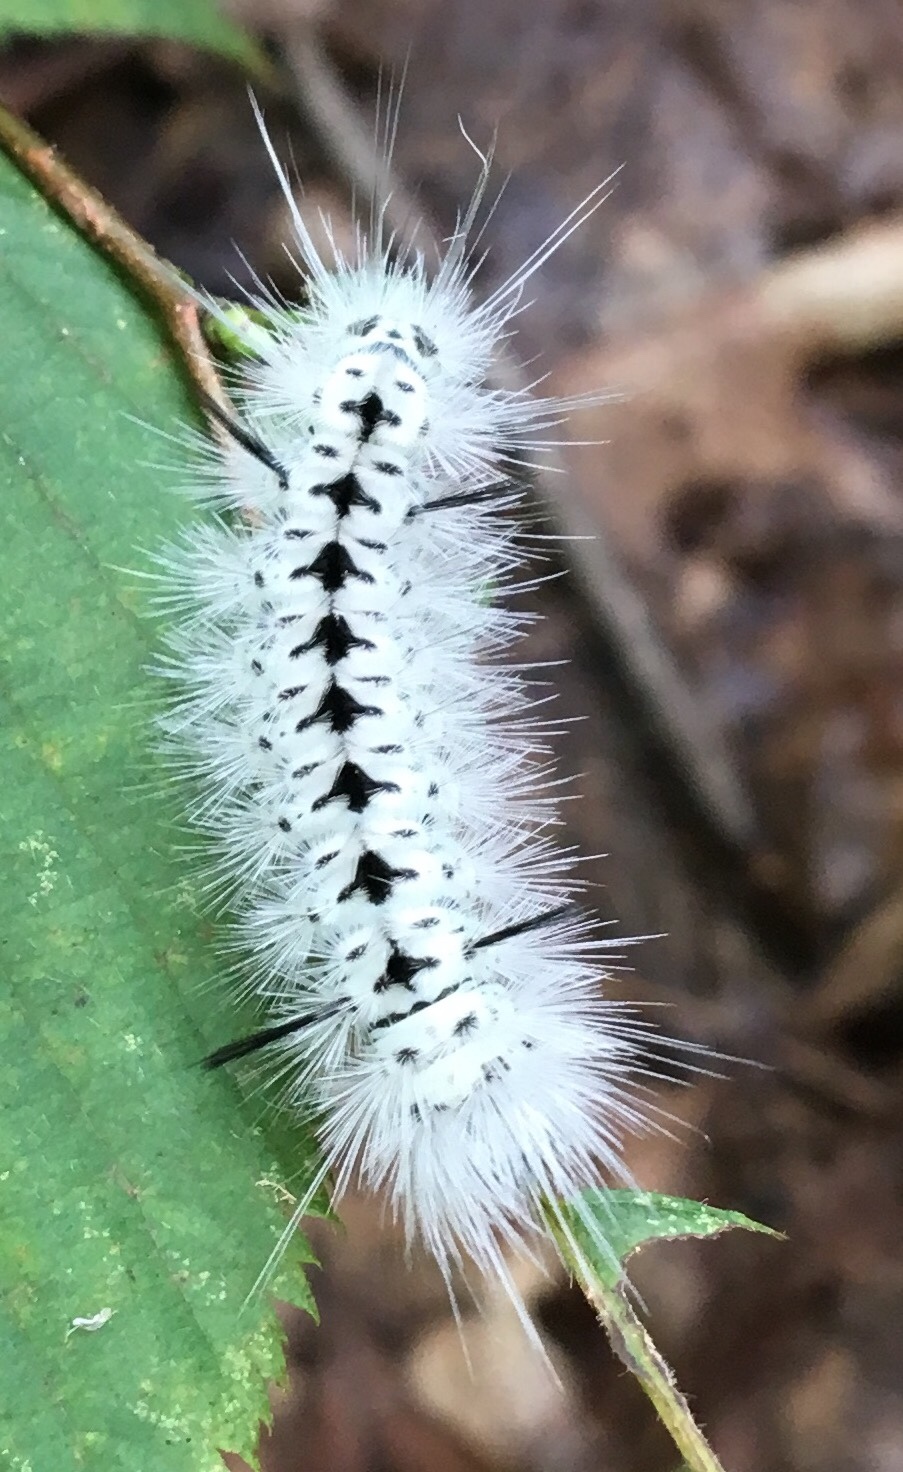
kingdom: Animalia
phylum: Arthropoda
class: Insecta
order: Lepidoptera
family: Erebidae
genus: Lophocampa
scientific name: Lophocampa caryae
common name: Hickory tussock moth
